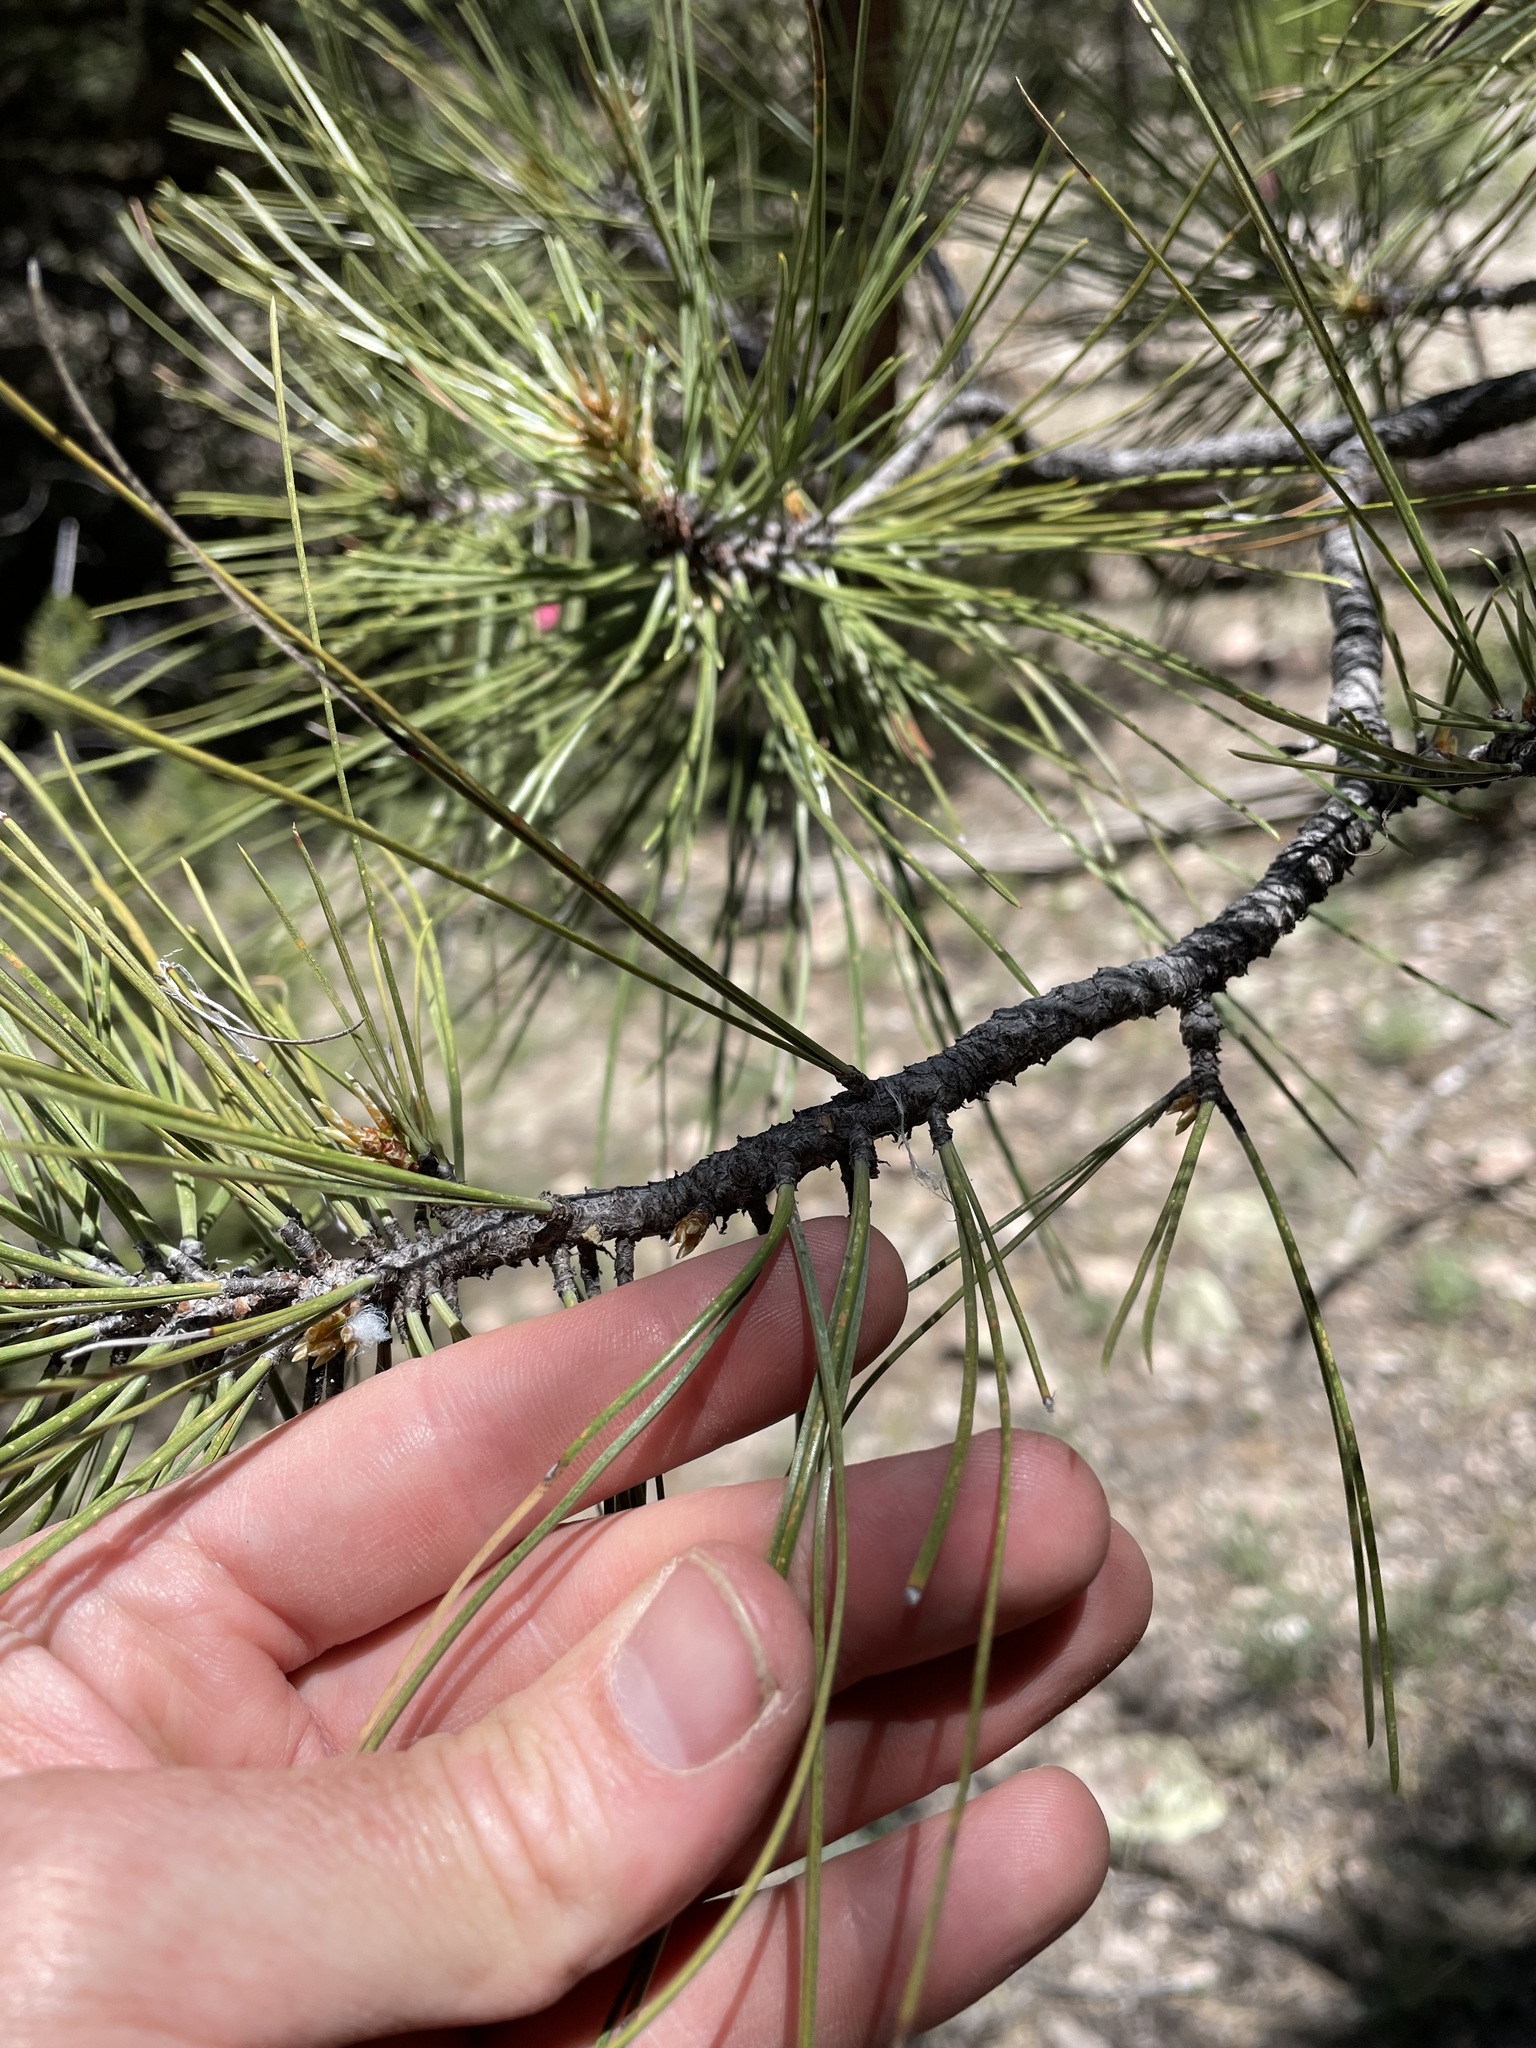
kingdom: Plantae
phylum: Tracheophyta
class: Pinopsida
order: Pinales
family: Pinaceae
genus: Pinus
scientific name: Pinus ponderosa
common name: Western yellow-pine
